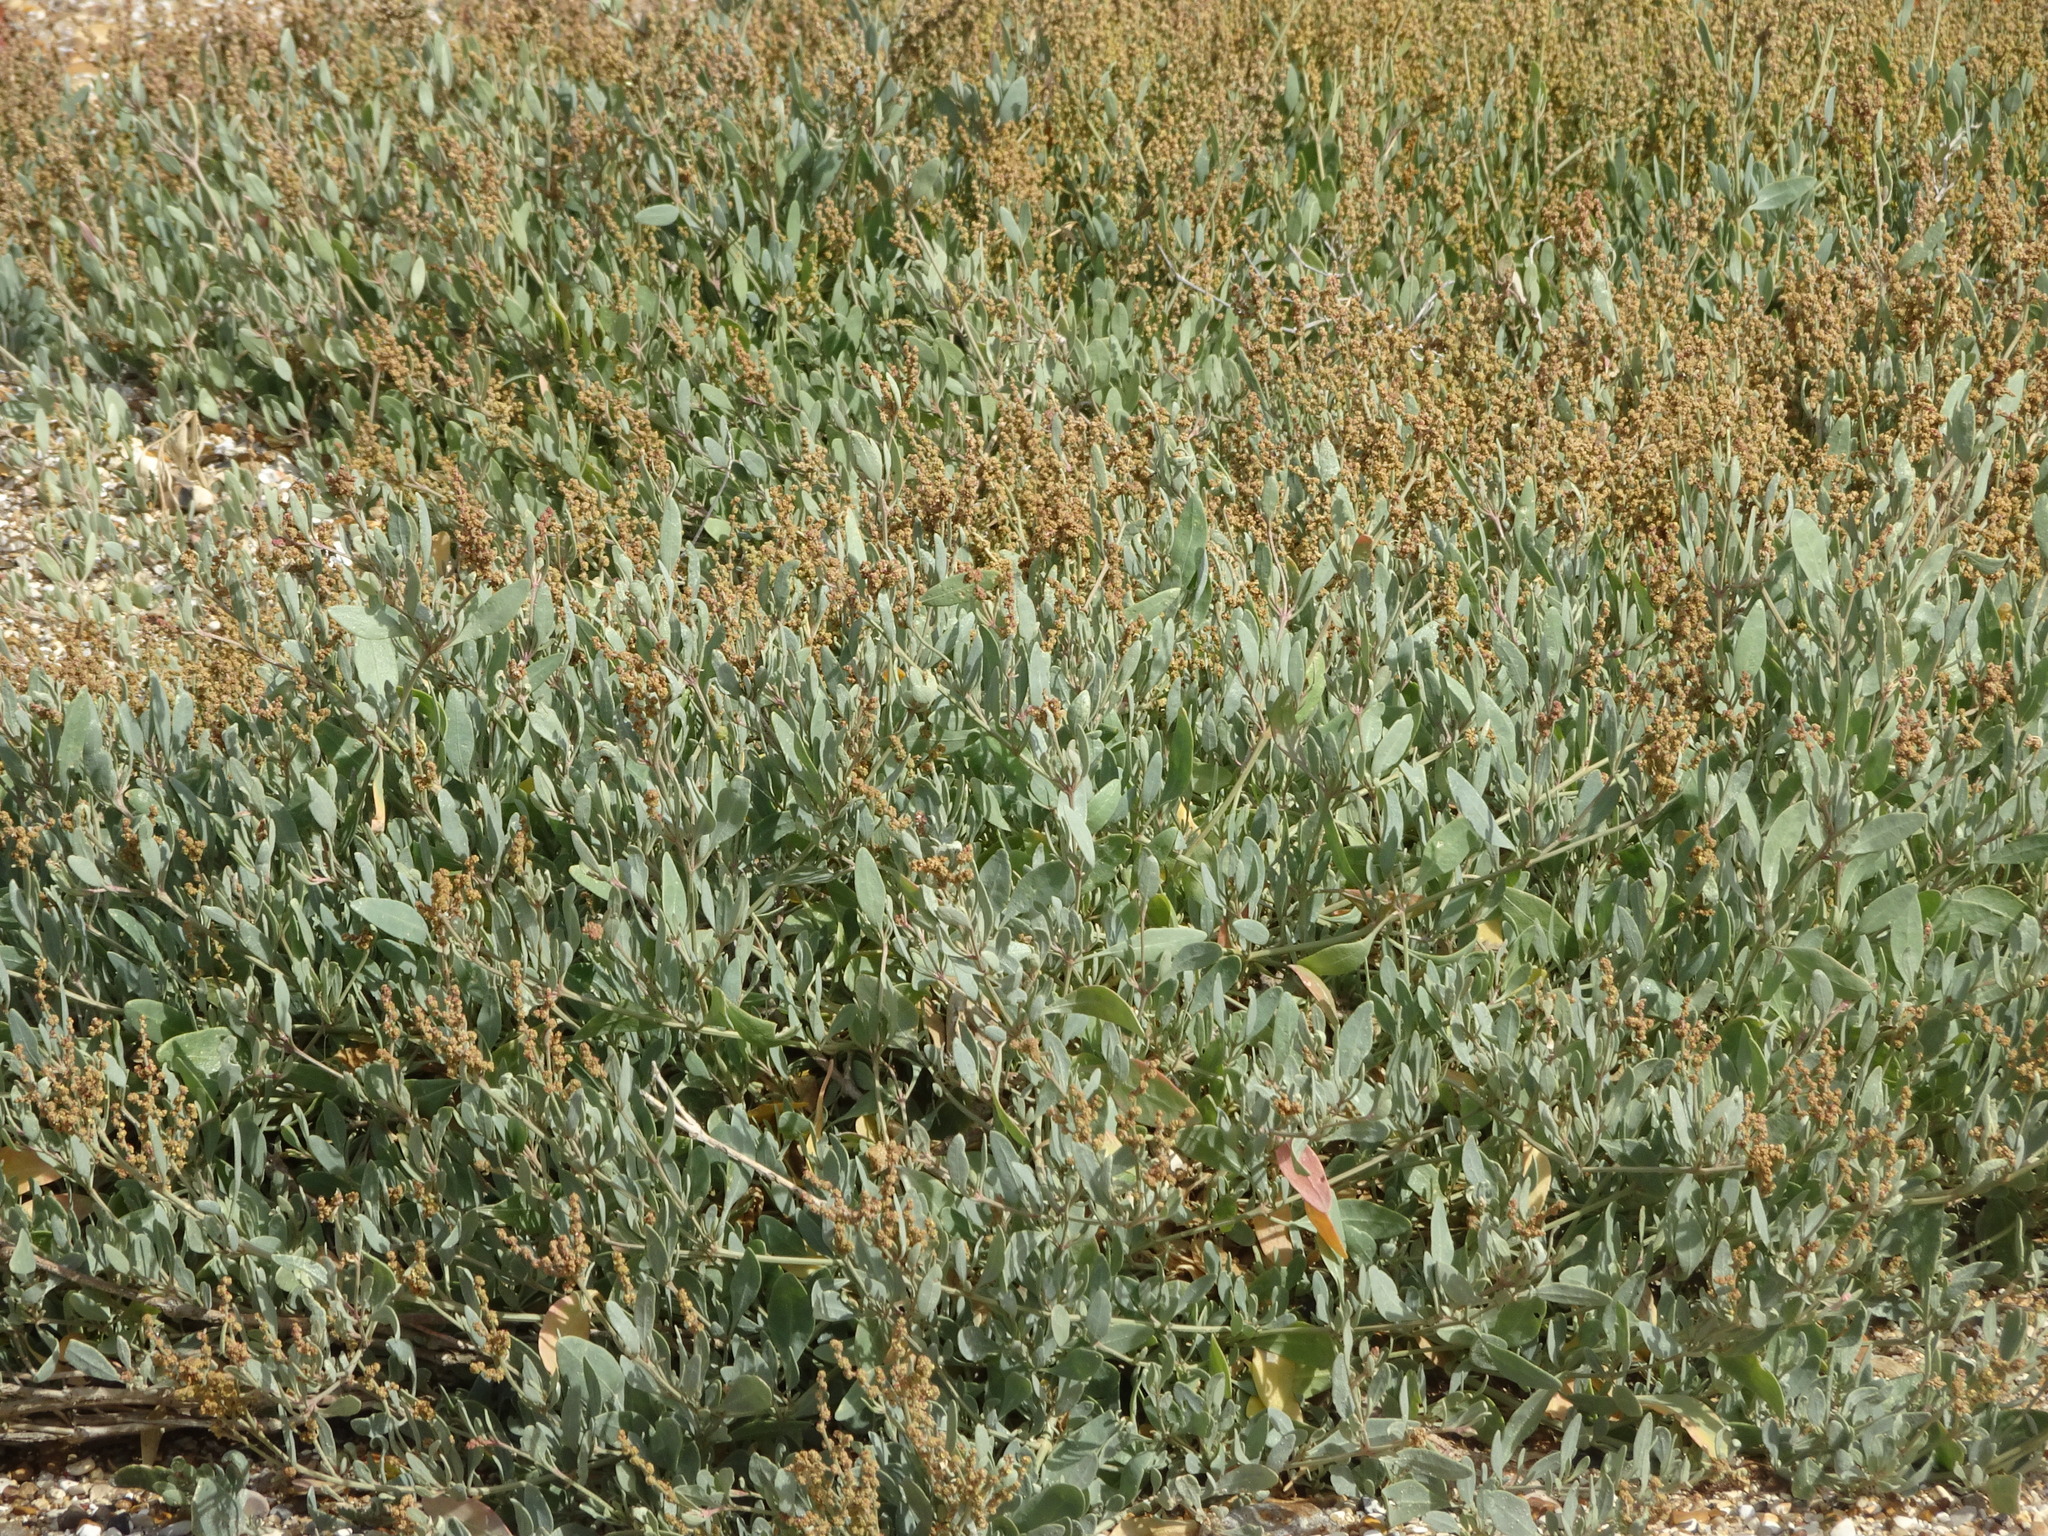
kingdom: Plantae
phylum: Tracheophyta
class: Magnoliopsida
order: Caryophyllales
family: Amaranthaceae
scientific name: Amaranthaceae
